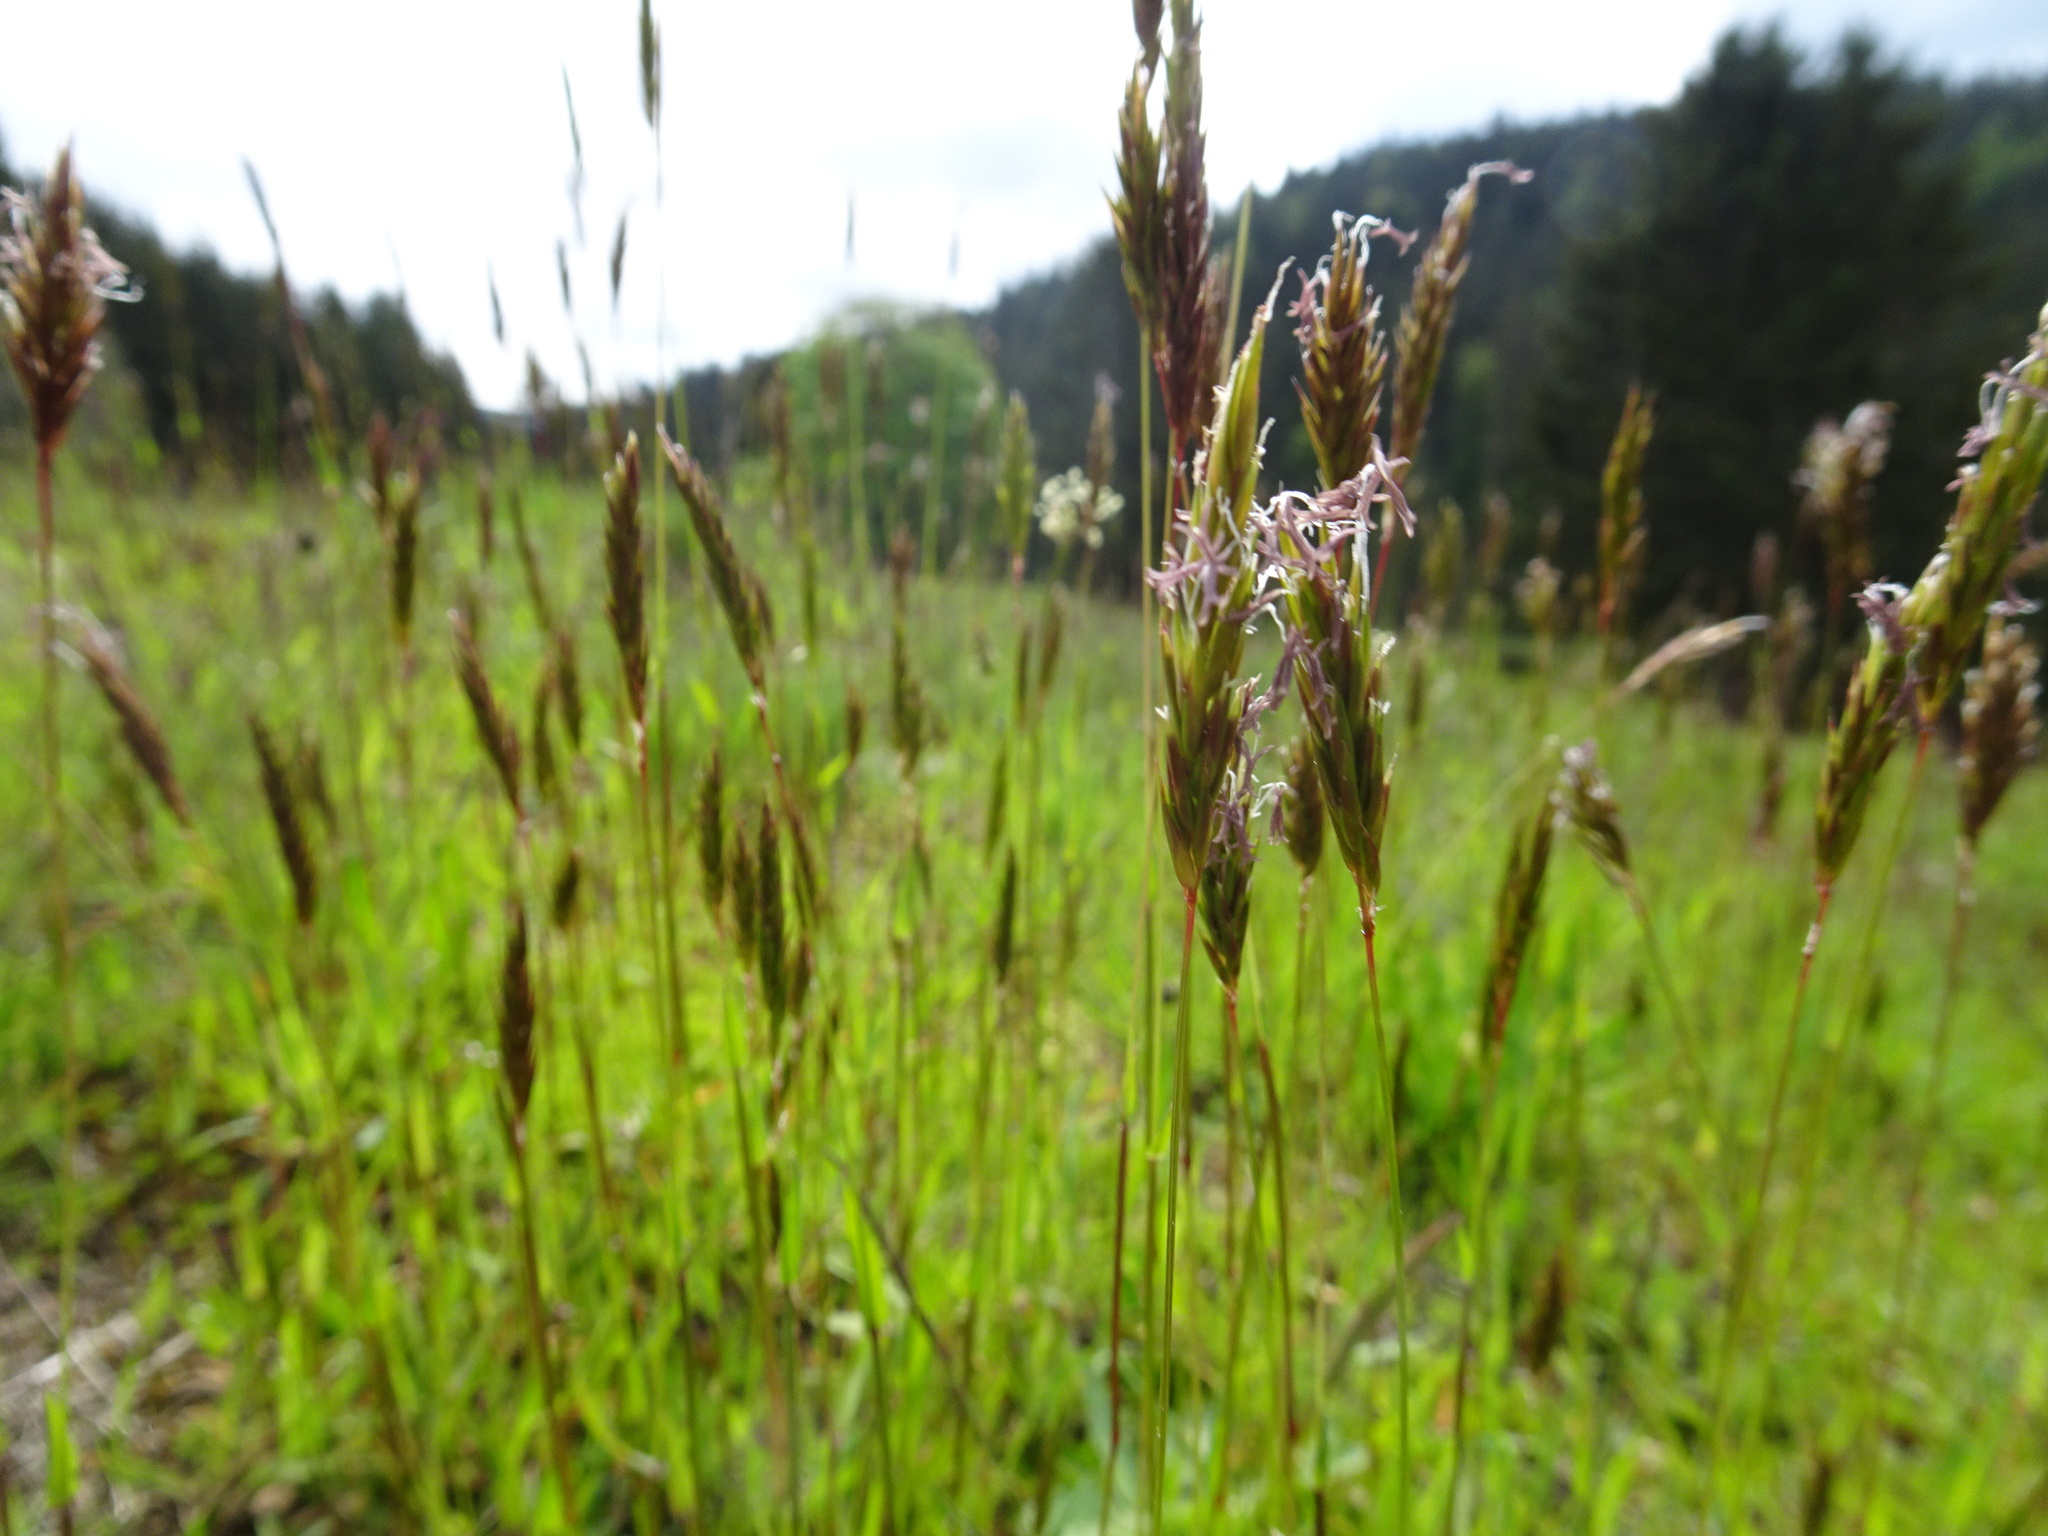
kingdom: Plantae
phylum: Tracheophyta
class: Liliopsida
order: Poales
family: Poaceae
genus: Anthoxanthum
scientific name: Anthoxanthum odoratum
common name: Sweet vernalgrass
